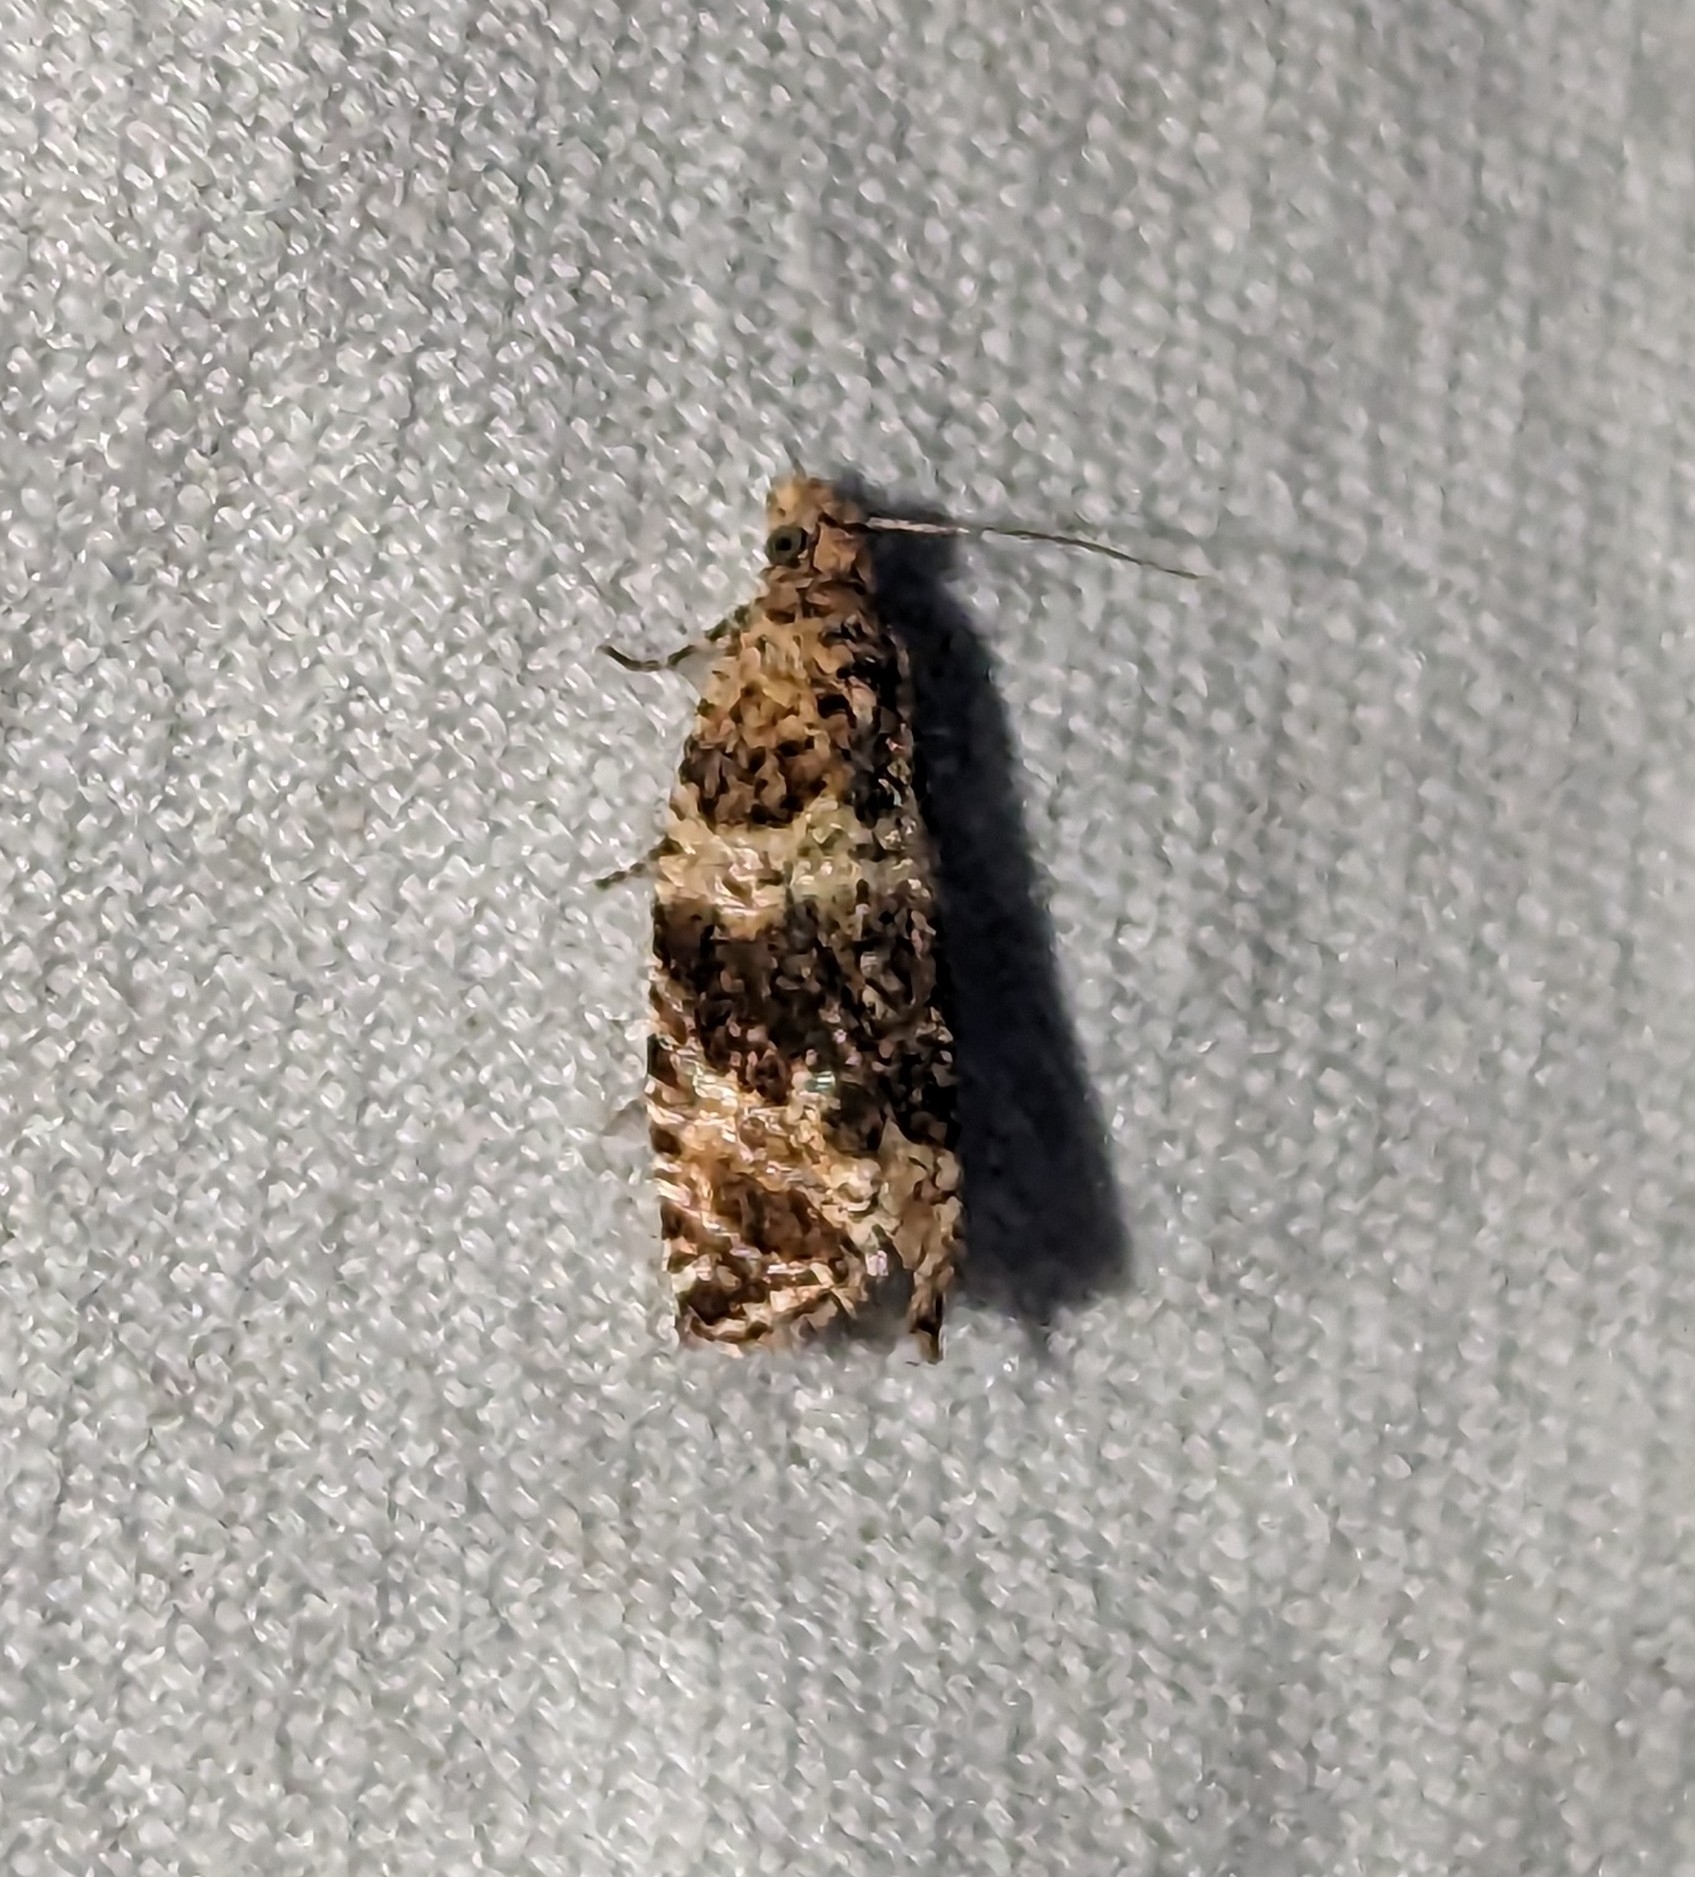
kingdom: Animalia
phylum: Arthropoda
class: Insecta
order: Lepidoptera
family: Tortricidae
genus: Celypha
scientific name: Celypha cespitana
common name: Thyme marble
